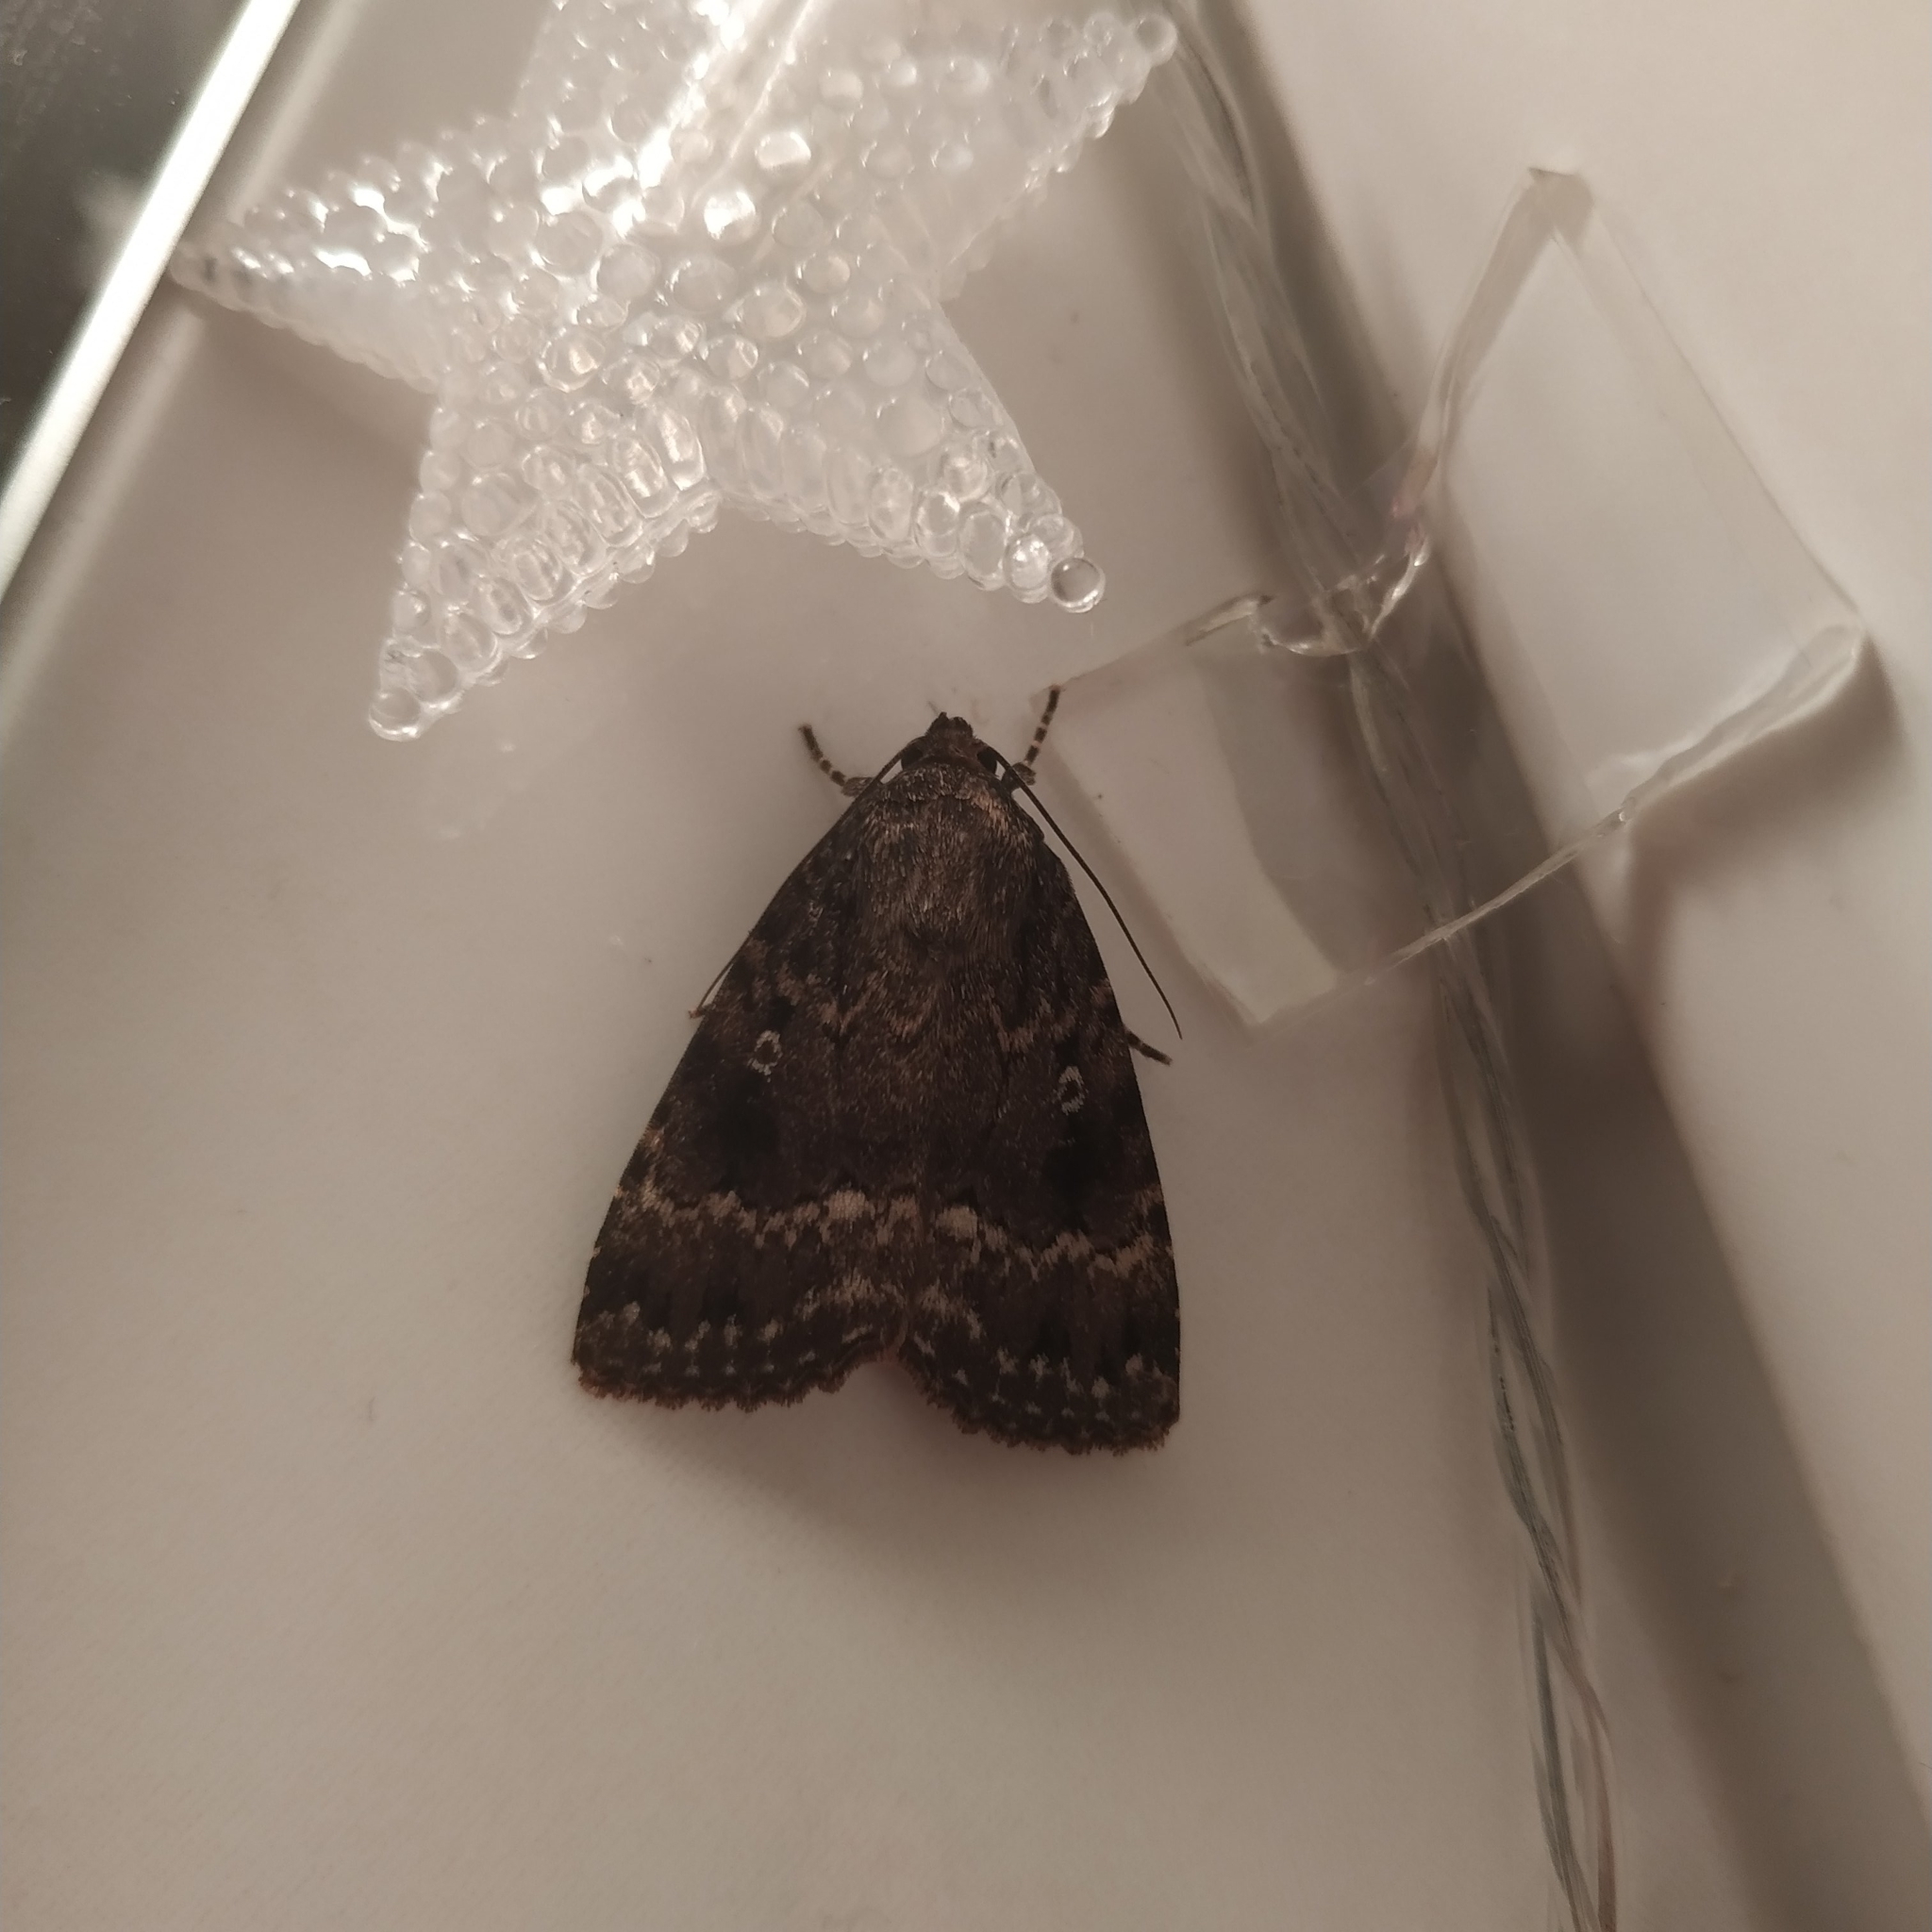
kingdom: Animalia
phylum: Arthropoda
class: Insecta
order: Lepidoptera
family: Noctuidae
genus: Amphipyra
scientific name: Amphipyra pyramidea
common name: Copper underwing
